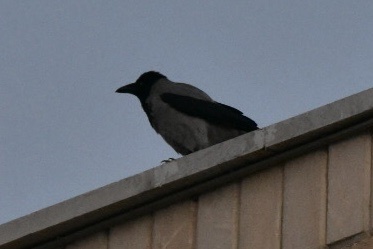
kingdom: Animalia
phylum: Chordata
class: Aves
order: Passeriformes
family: Corvidae
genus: Corvus
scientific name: Corvus cornix
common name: Hooded crow
